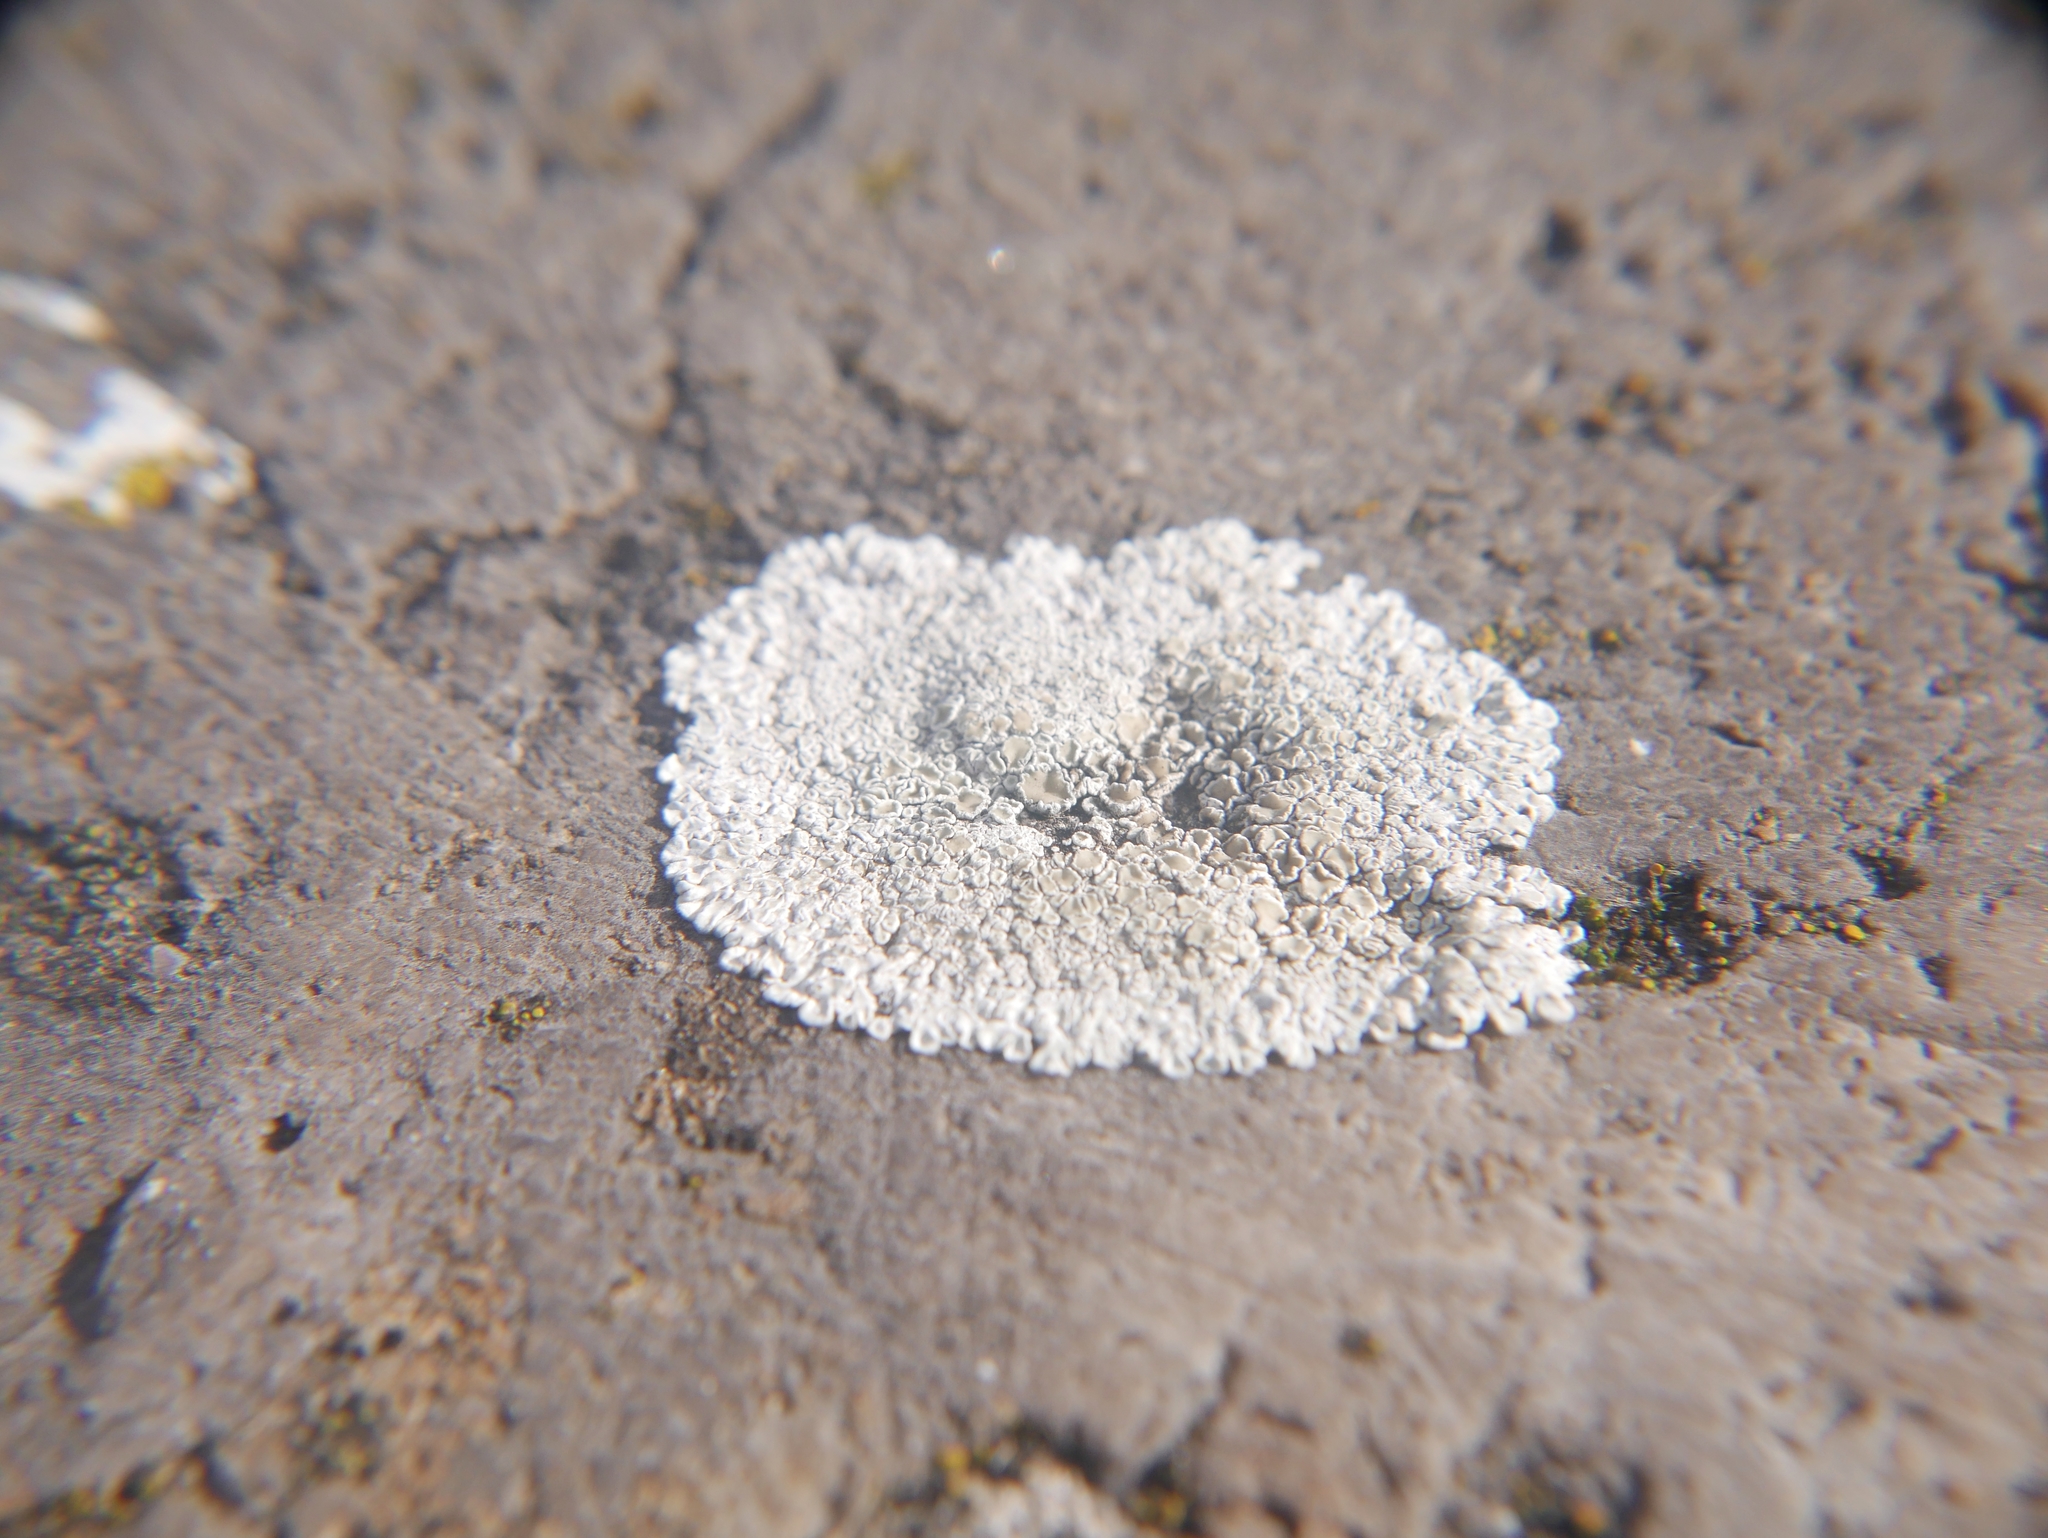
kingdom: Fungi
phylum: Ascomycota
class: Lecanoromycetes
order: Lecanorales
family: Lecanoraceae
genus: Protoparmeliopsis
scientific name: Protoparmeliopsis muralis
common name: Stonewall rim lichen
